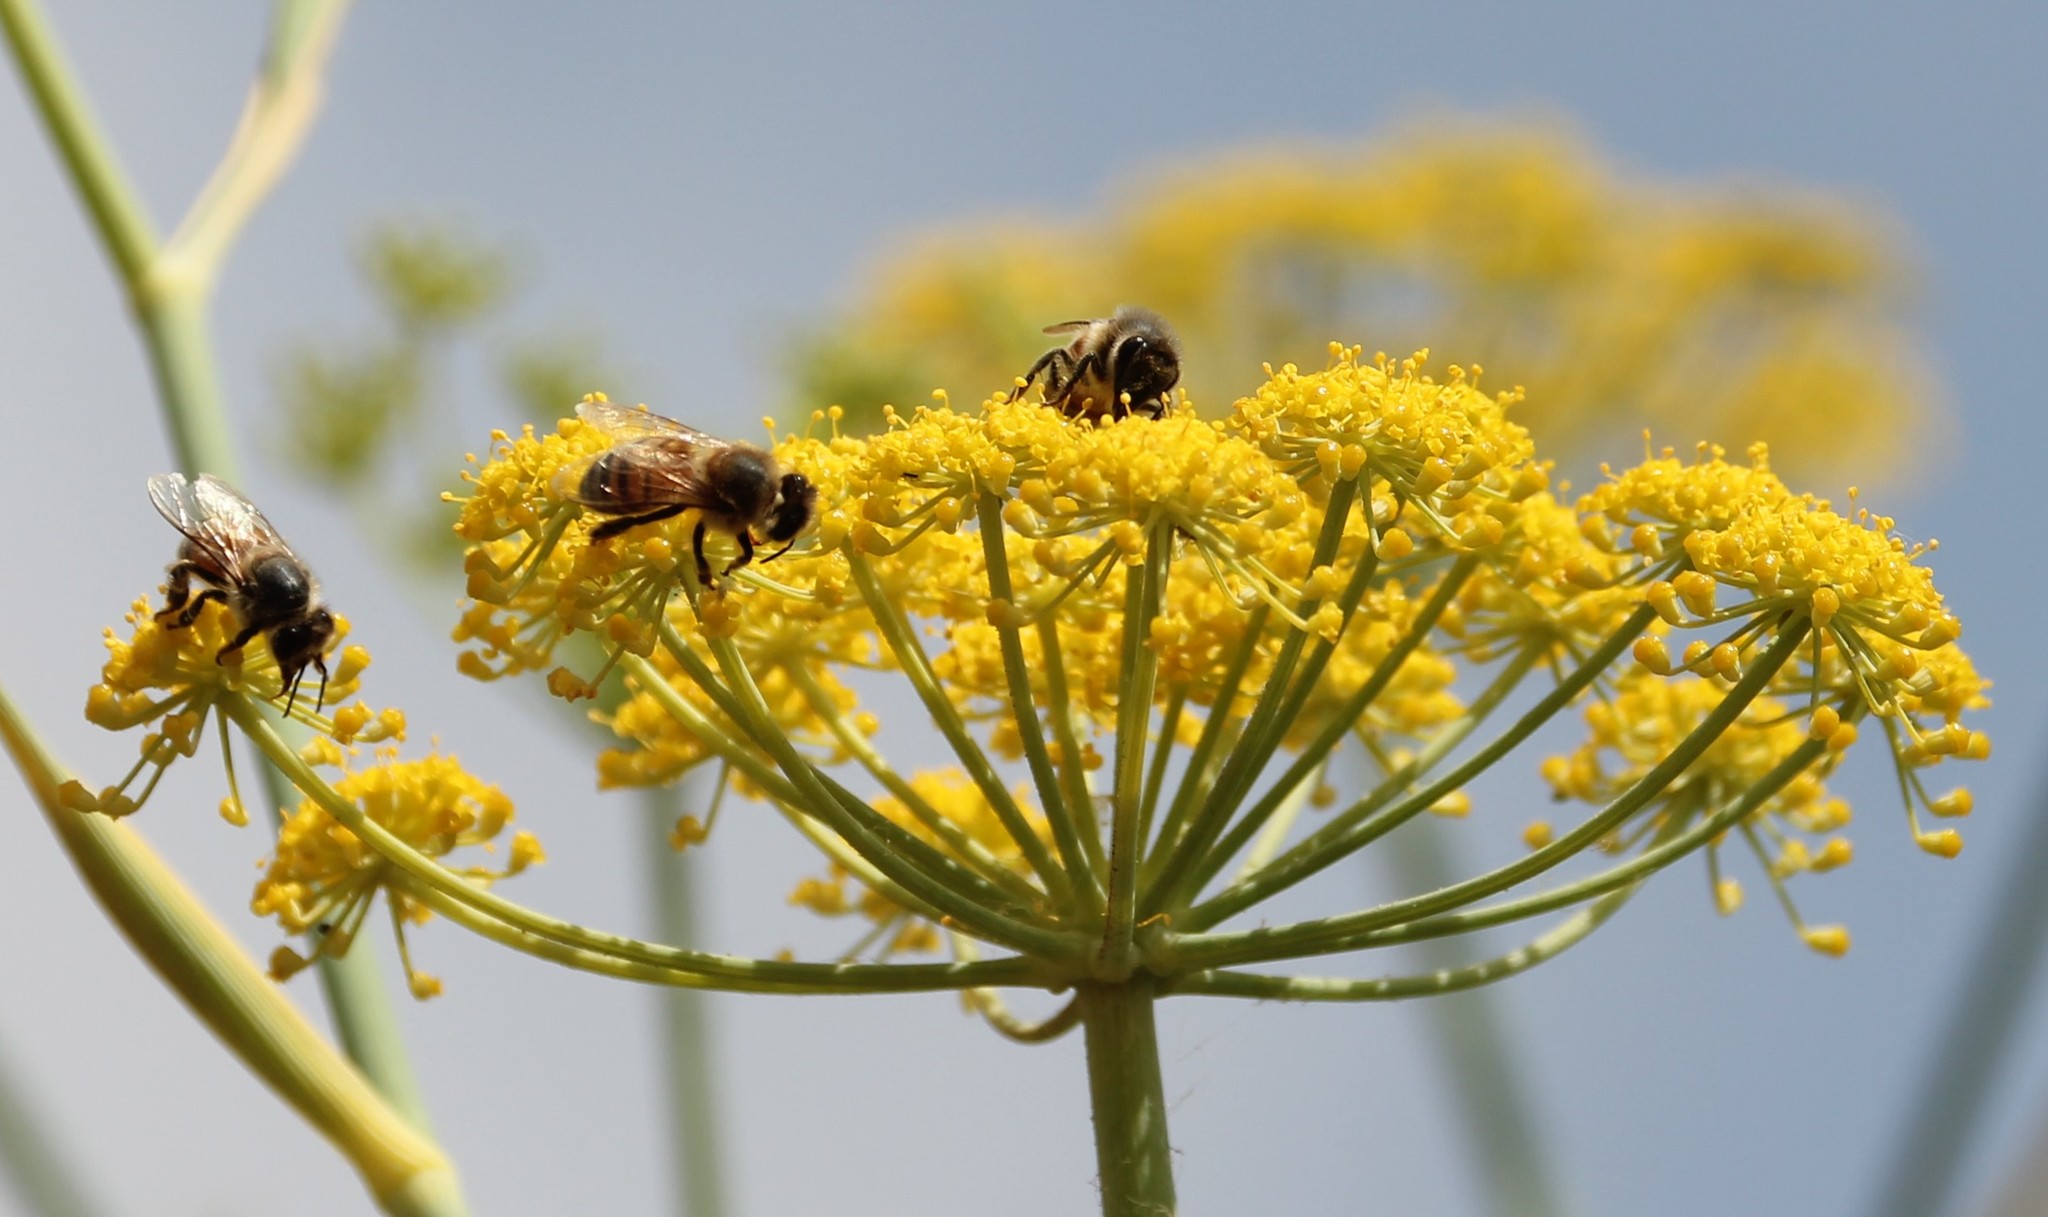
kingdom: Animalia
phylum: Arthropoda
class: Insecta
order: Hymenoptera
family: Apidae
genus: Apis
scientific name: Apis mellifera
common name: Honey bee
